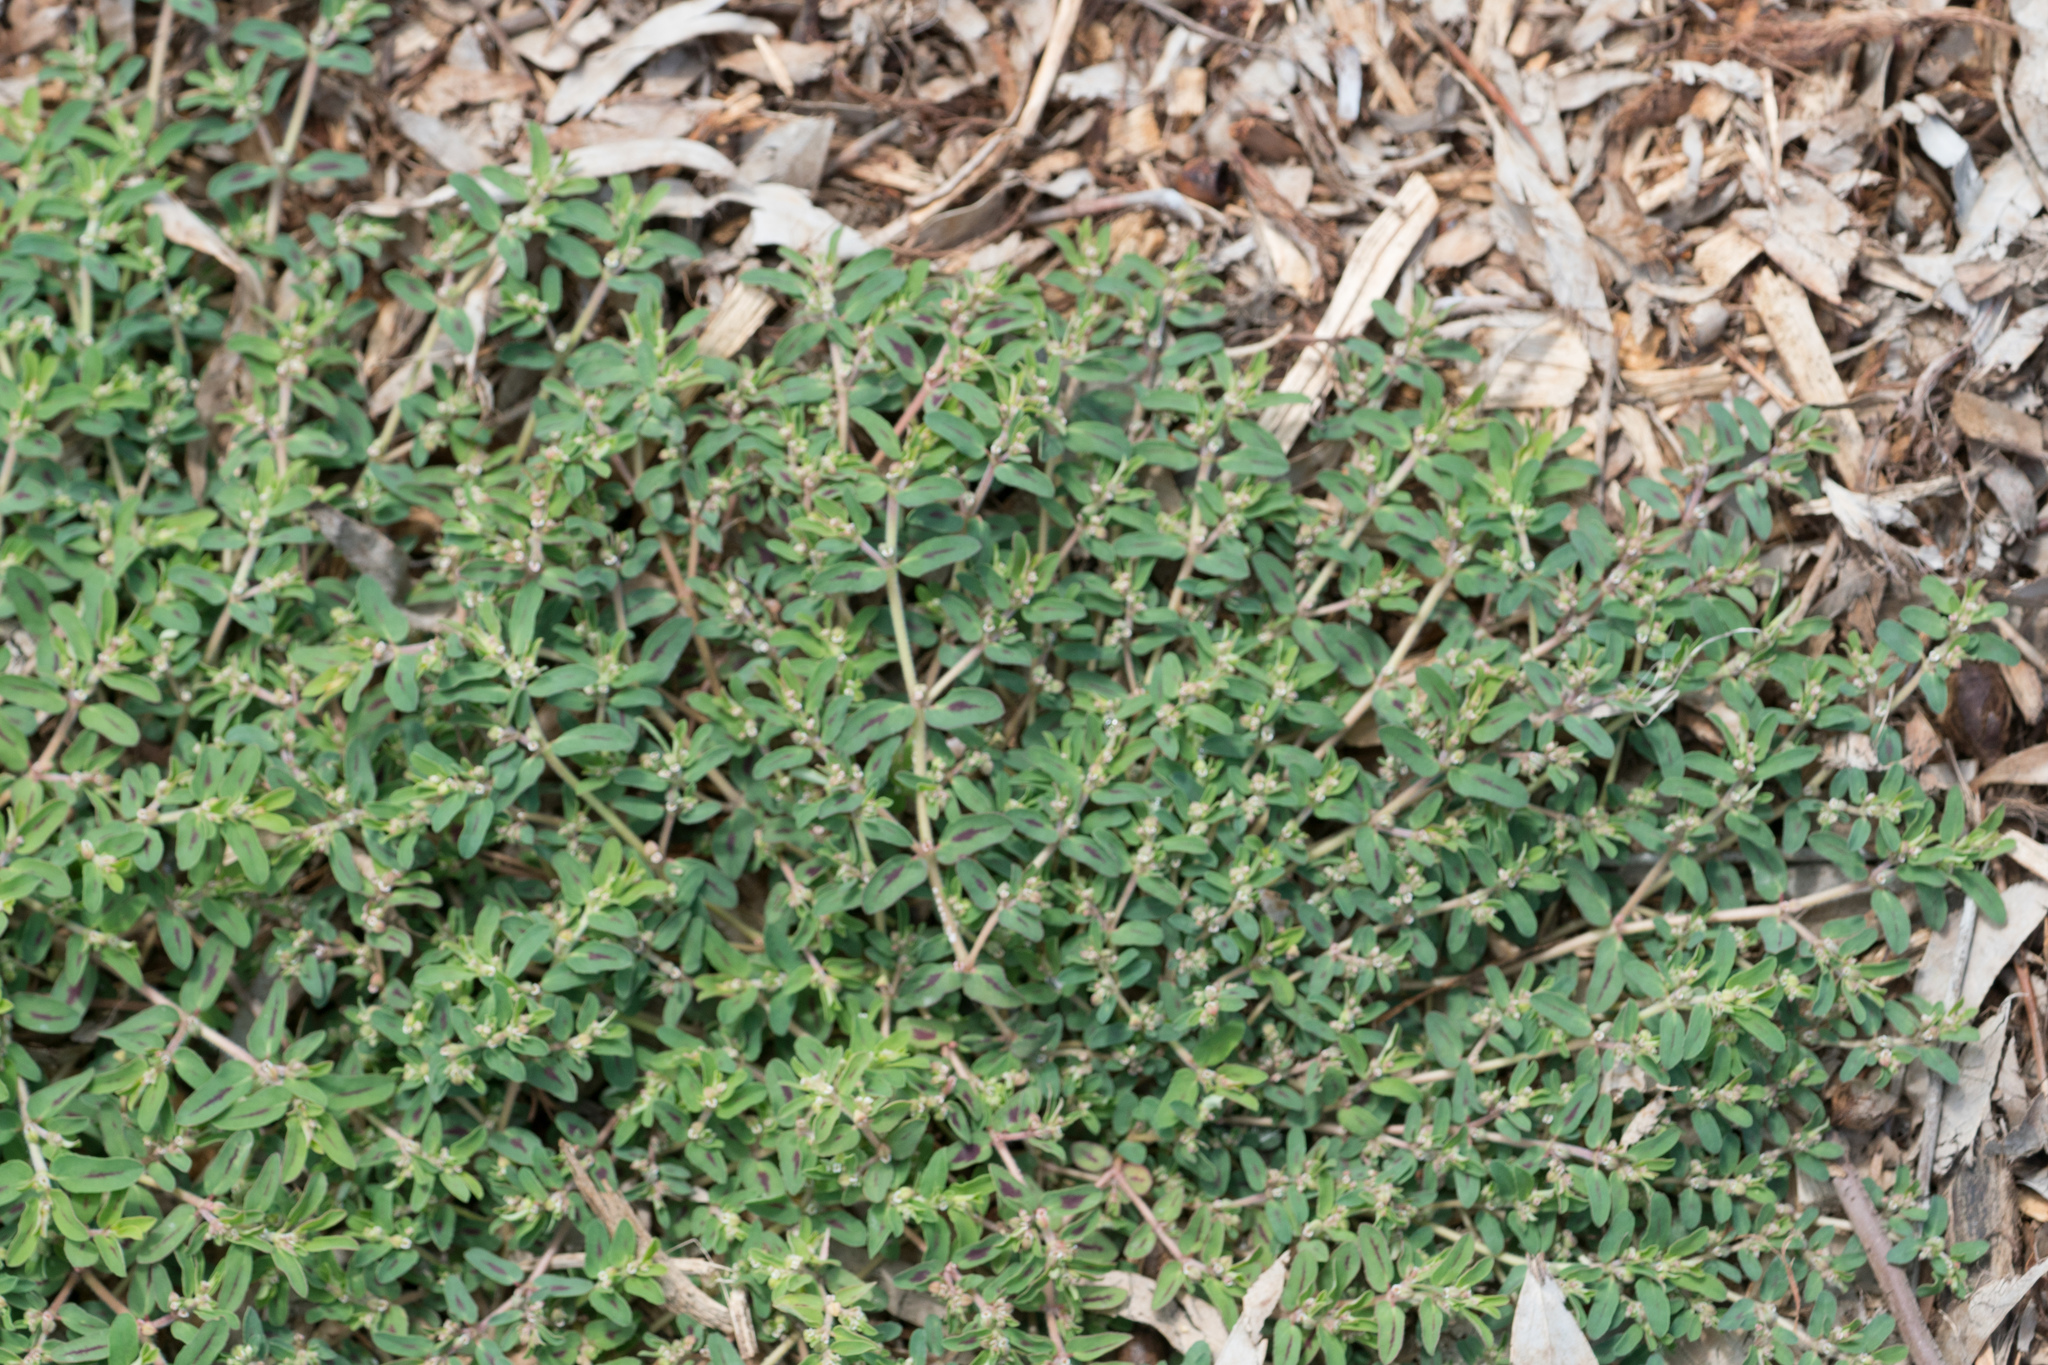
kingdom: Plantae
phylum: Tracheophyta
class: Magnoliopsida
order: Malpighiales
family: Euphorbiaceae
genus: Euphorbia
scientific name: Euphorbia maculata
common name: Spotted spurge
